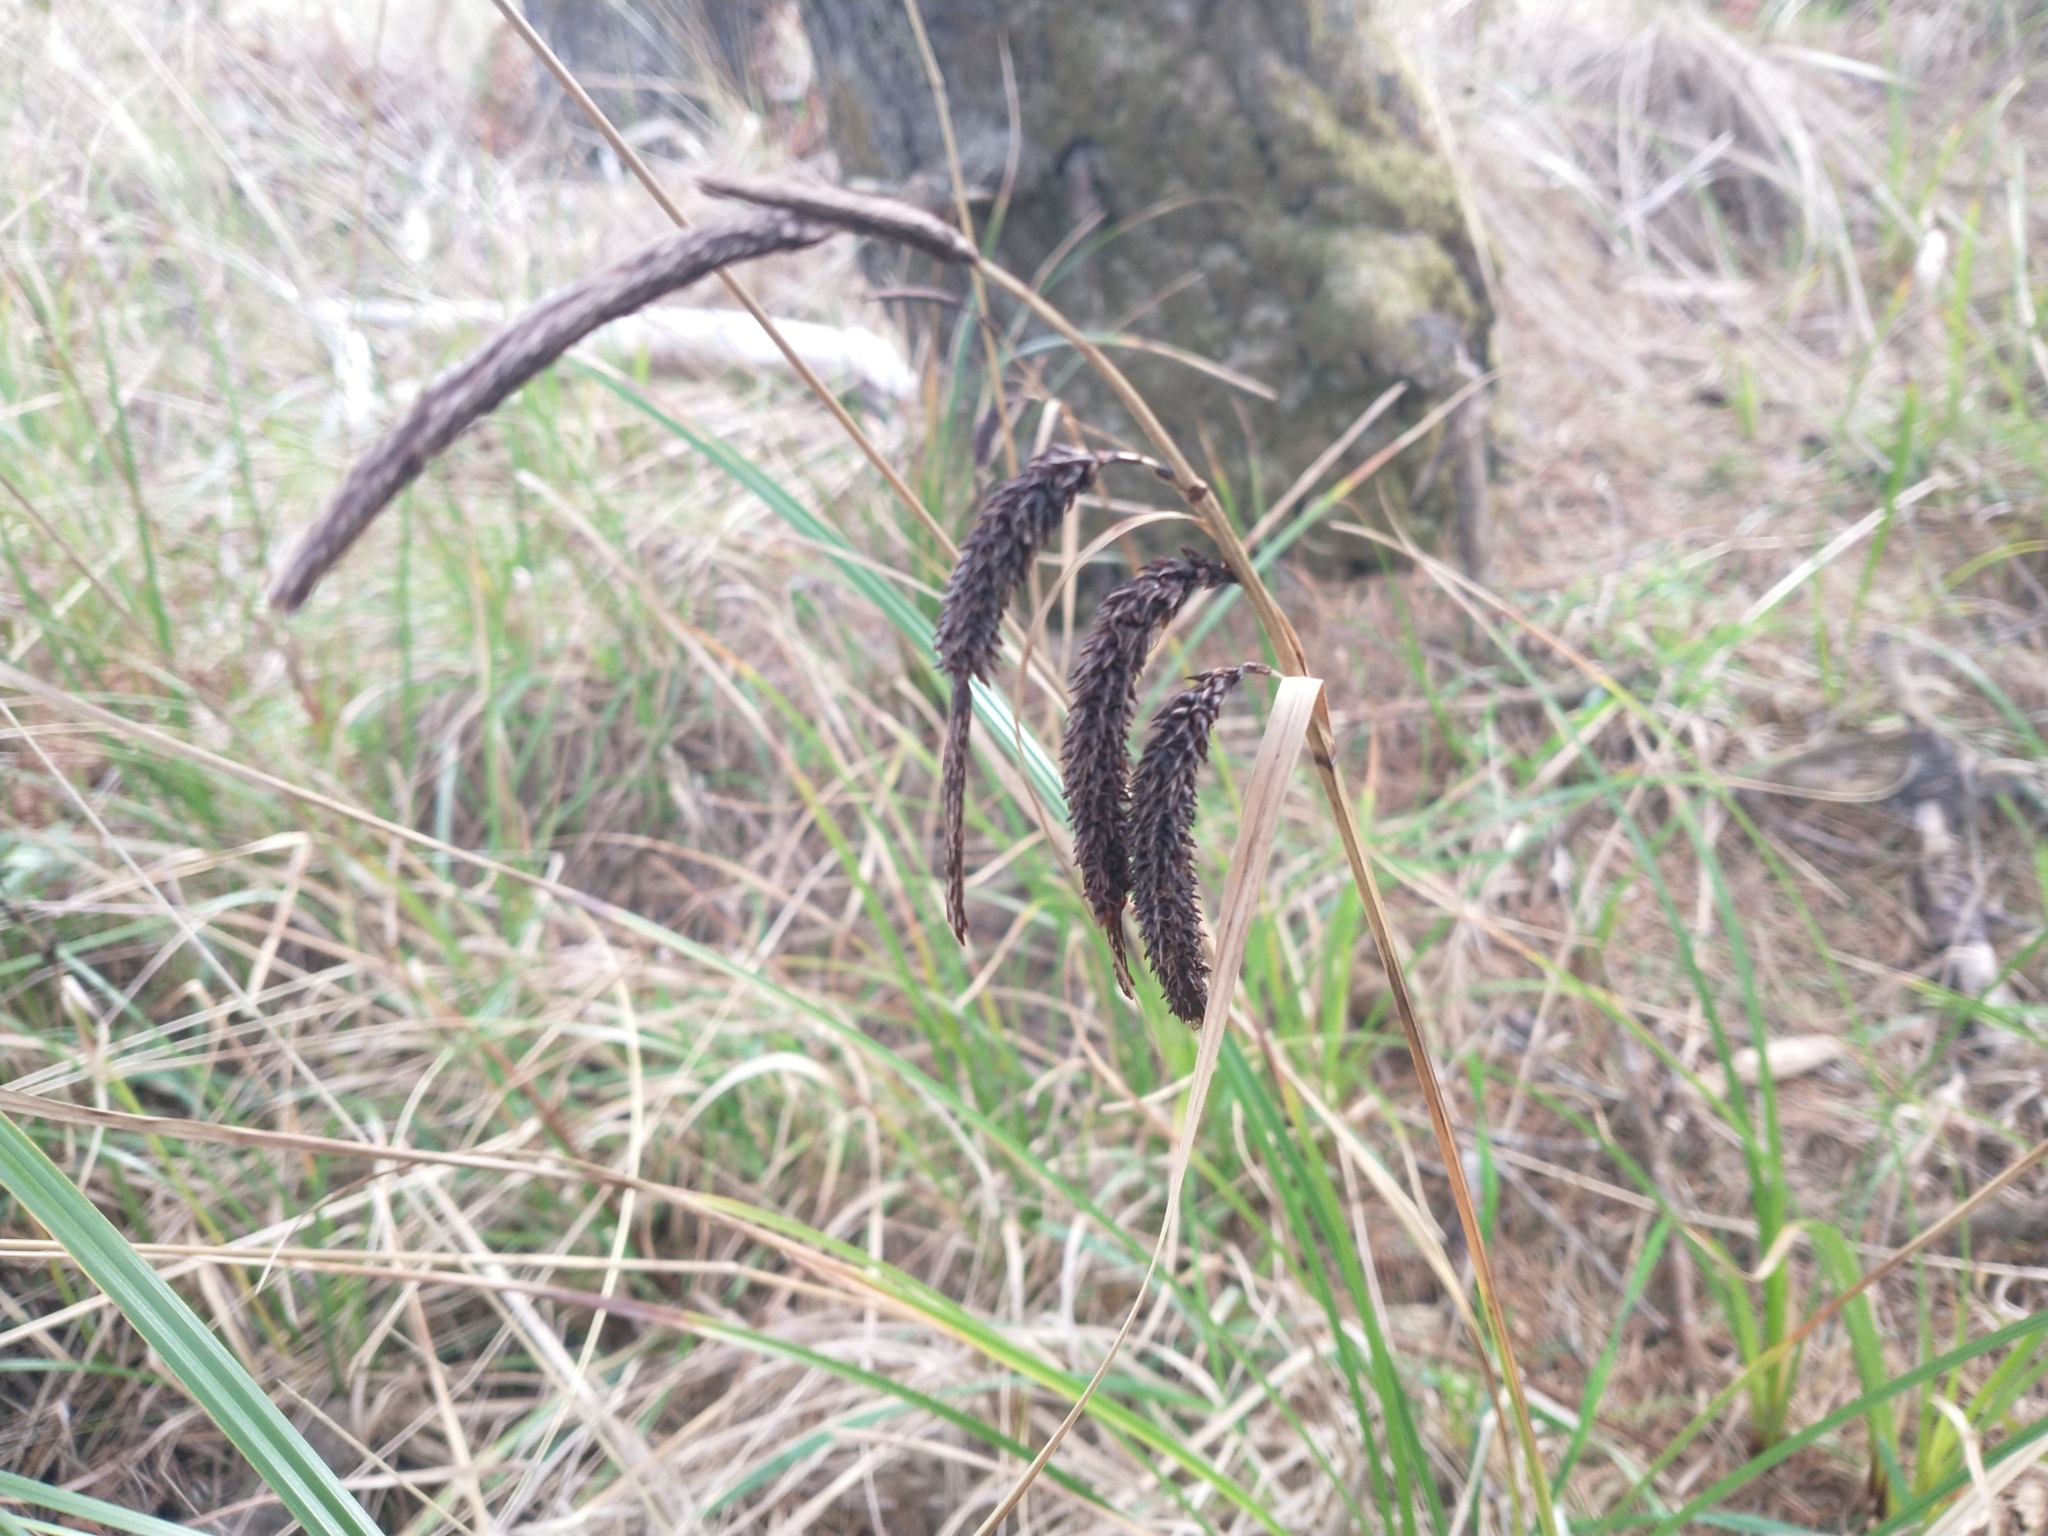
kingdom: Plantae
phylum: Tracheophyta
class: Liliopsida
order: Poales
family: Cyperaceae
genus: Carex
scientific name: Carex obnupta
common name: Slough sedge
